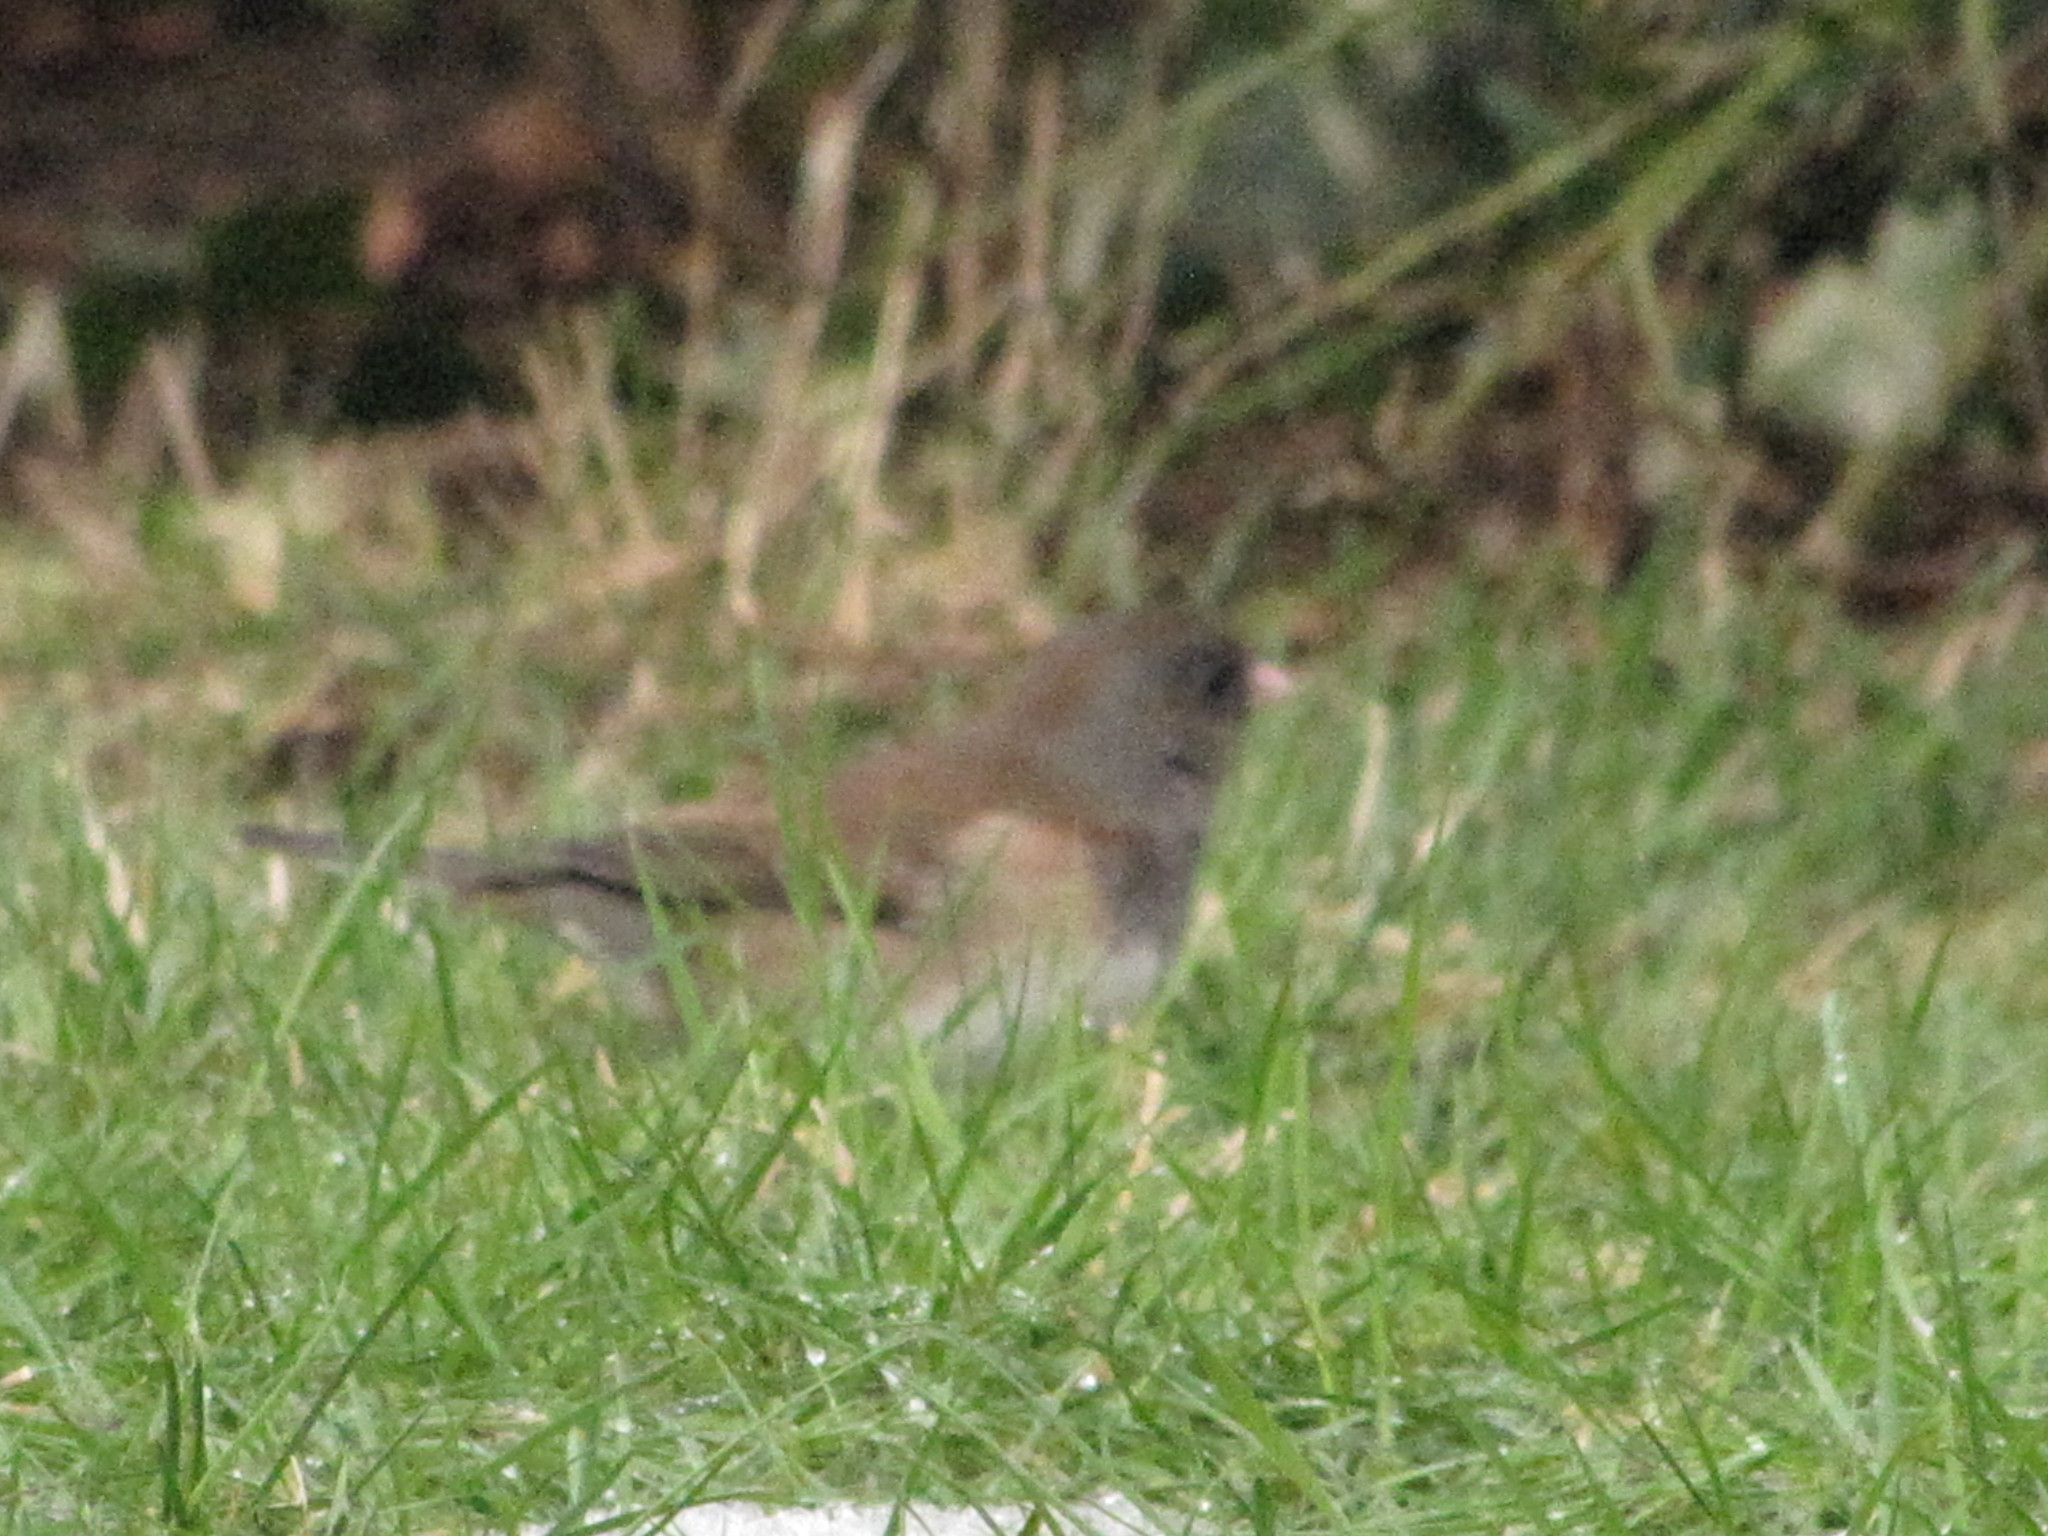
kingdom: Animalia
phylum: Chordata
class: Aves
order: Passeriformes
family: Passerellidae
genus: Junco
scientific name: Junco hyemalis
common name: Dark-eyed junco
